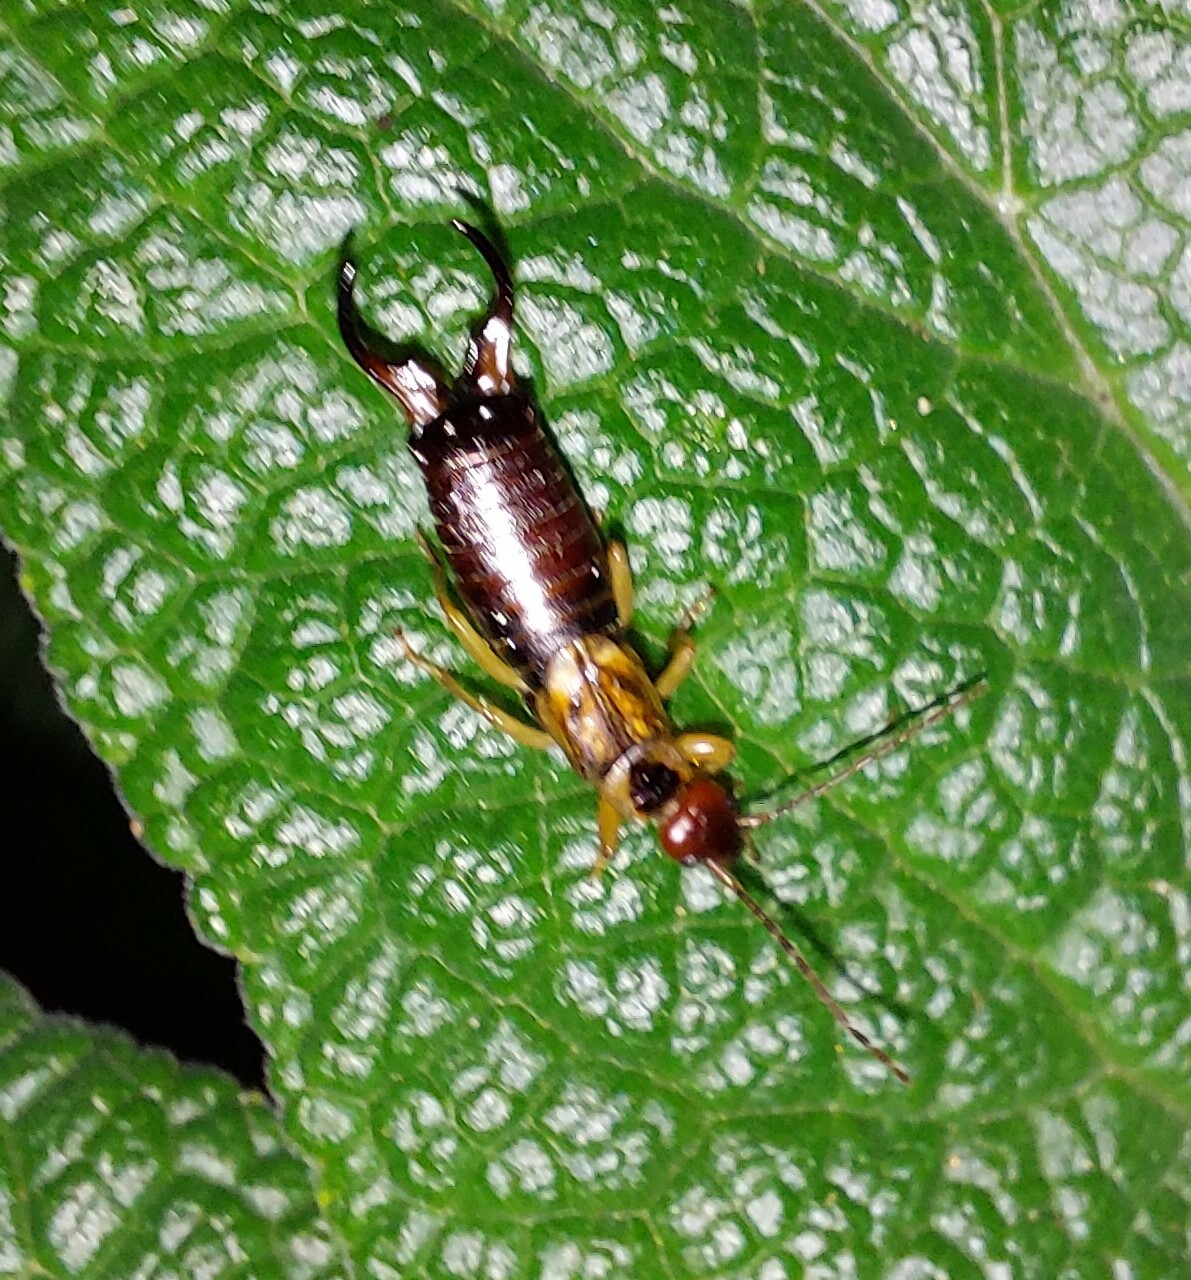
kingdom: Animalia
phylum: Arthropoda
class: Insecta
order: Dermaptera
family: Forficulidae
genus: Forficula
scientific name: Forficula dentata
